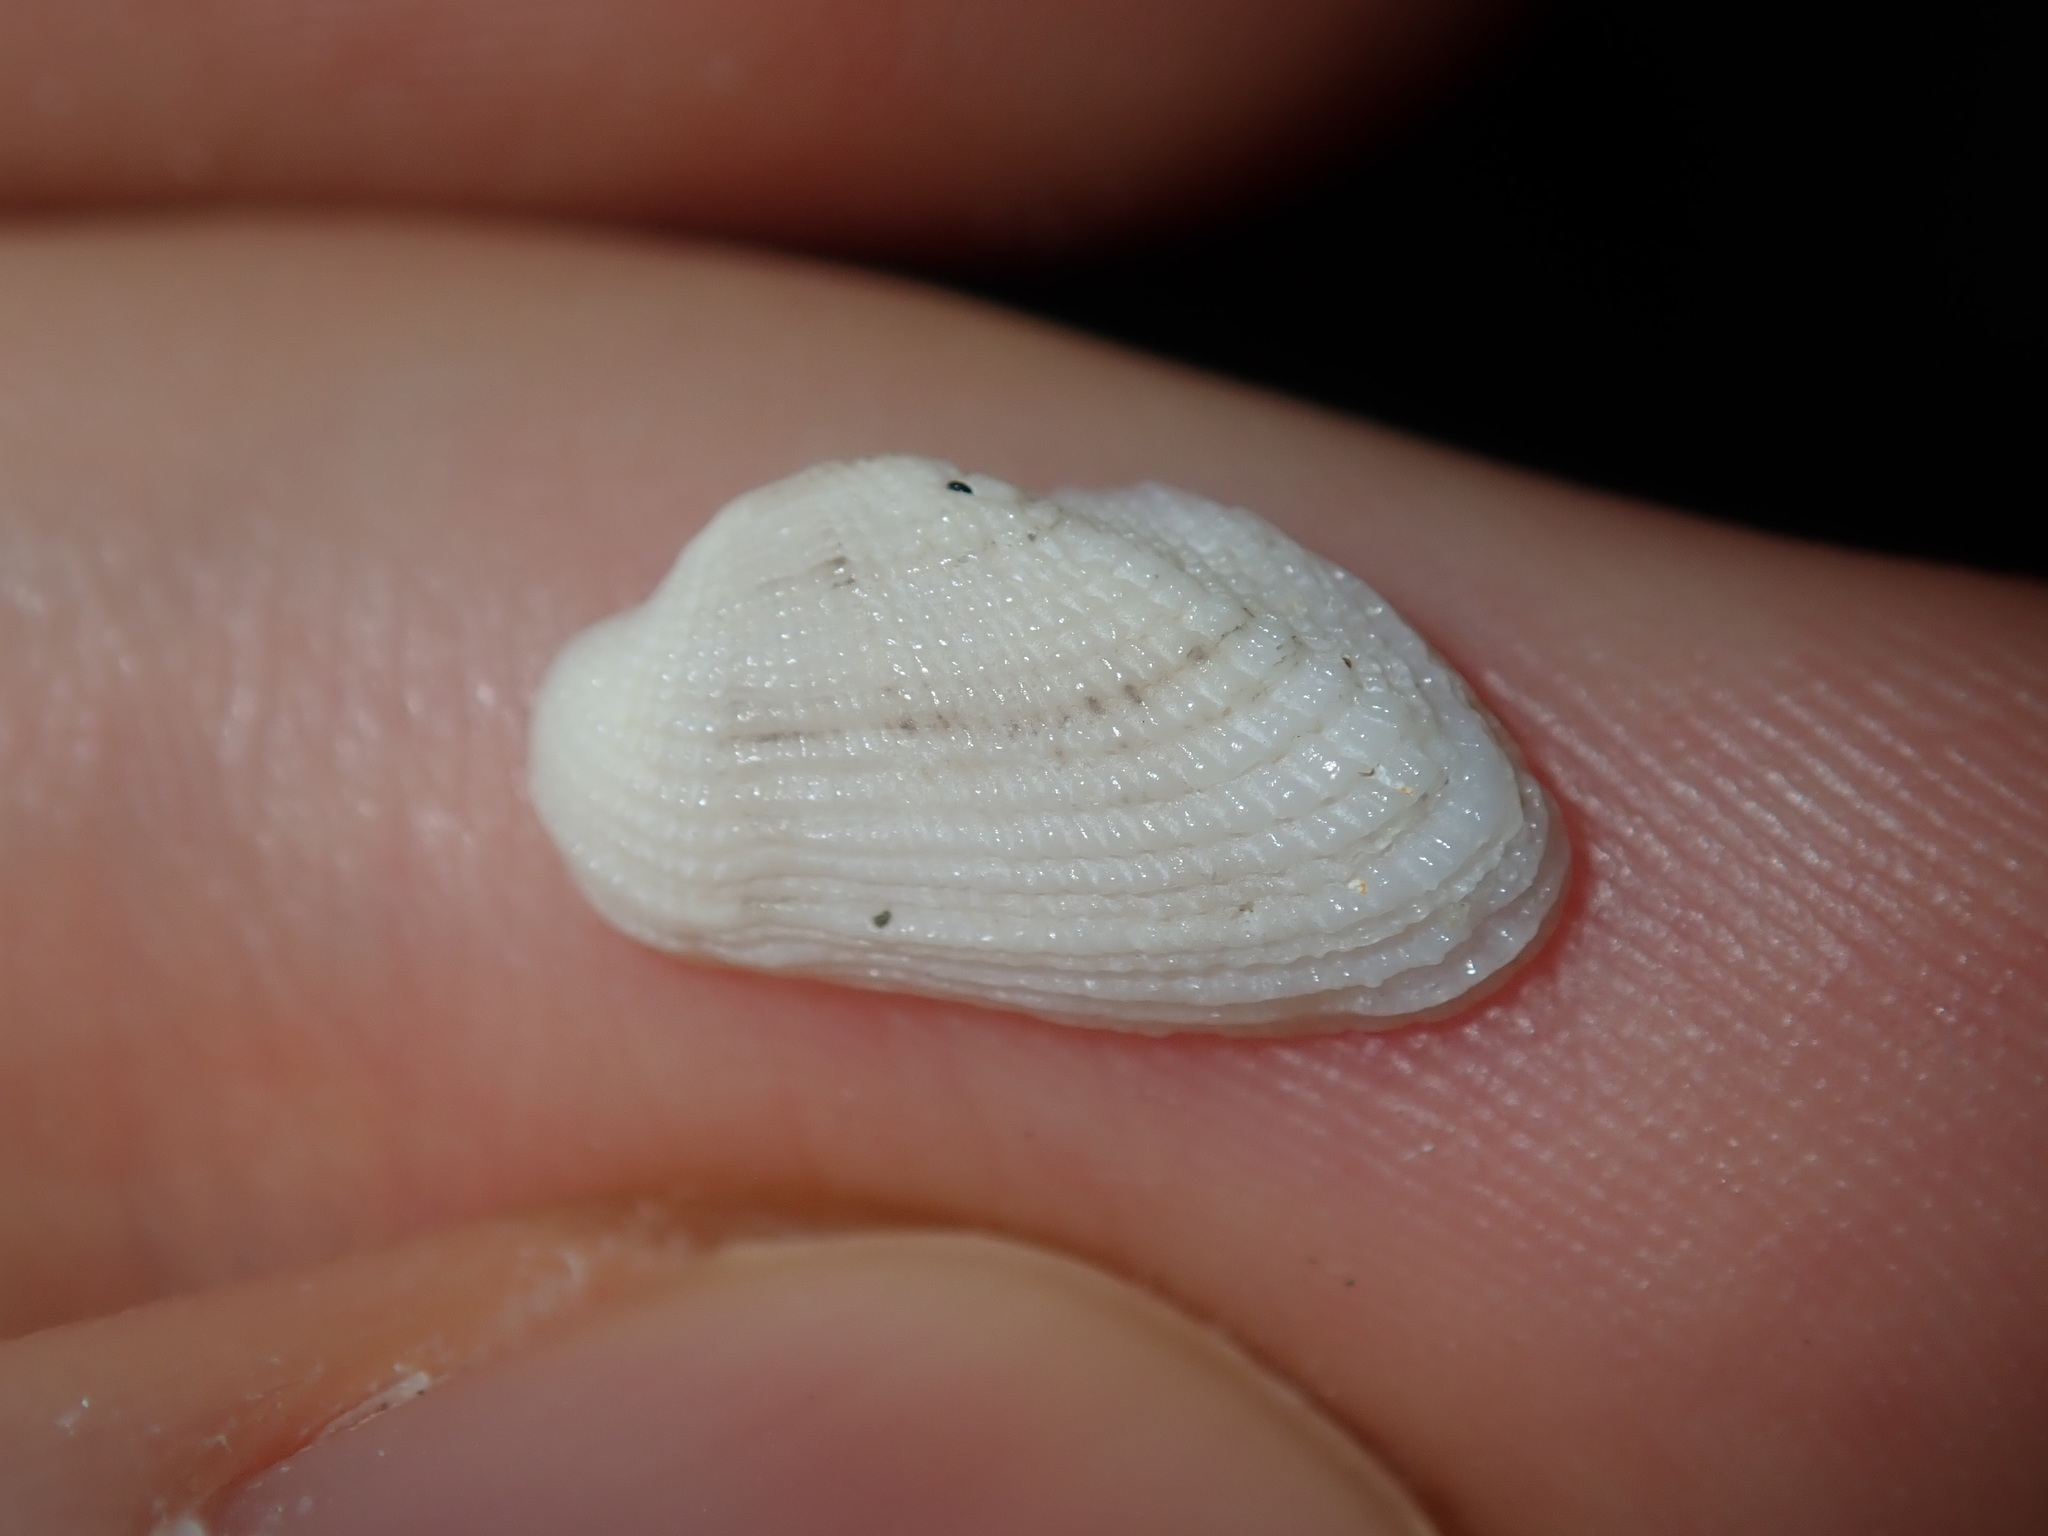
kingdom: Animalia
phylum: Mollusca
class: Bivalvia
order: Arcida
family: Arcidae
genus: Acar
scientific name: Acar botanica
